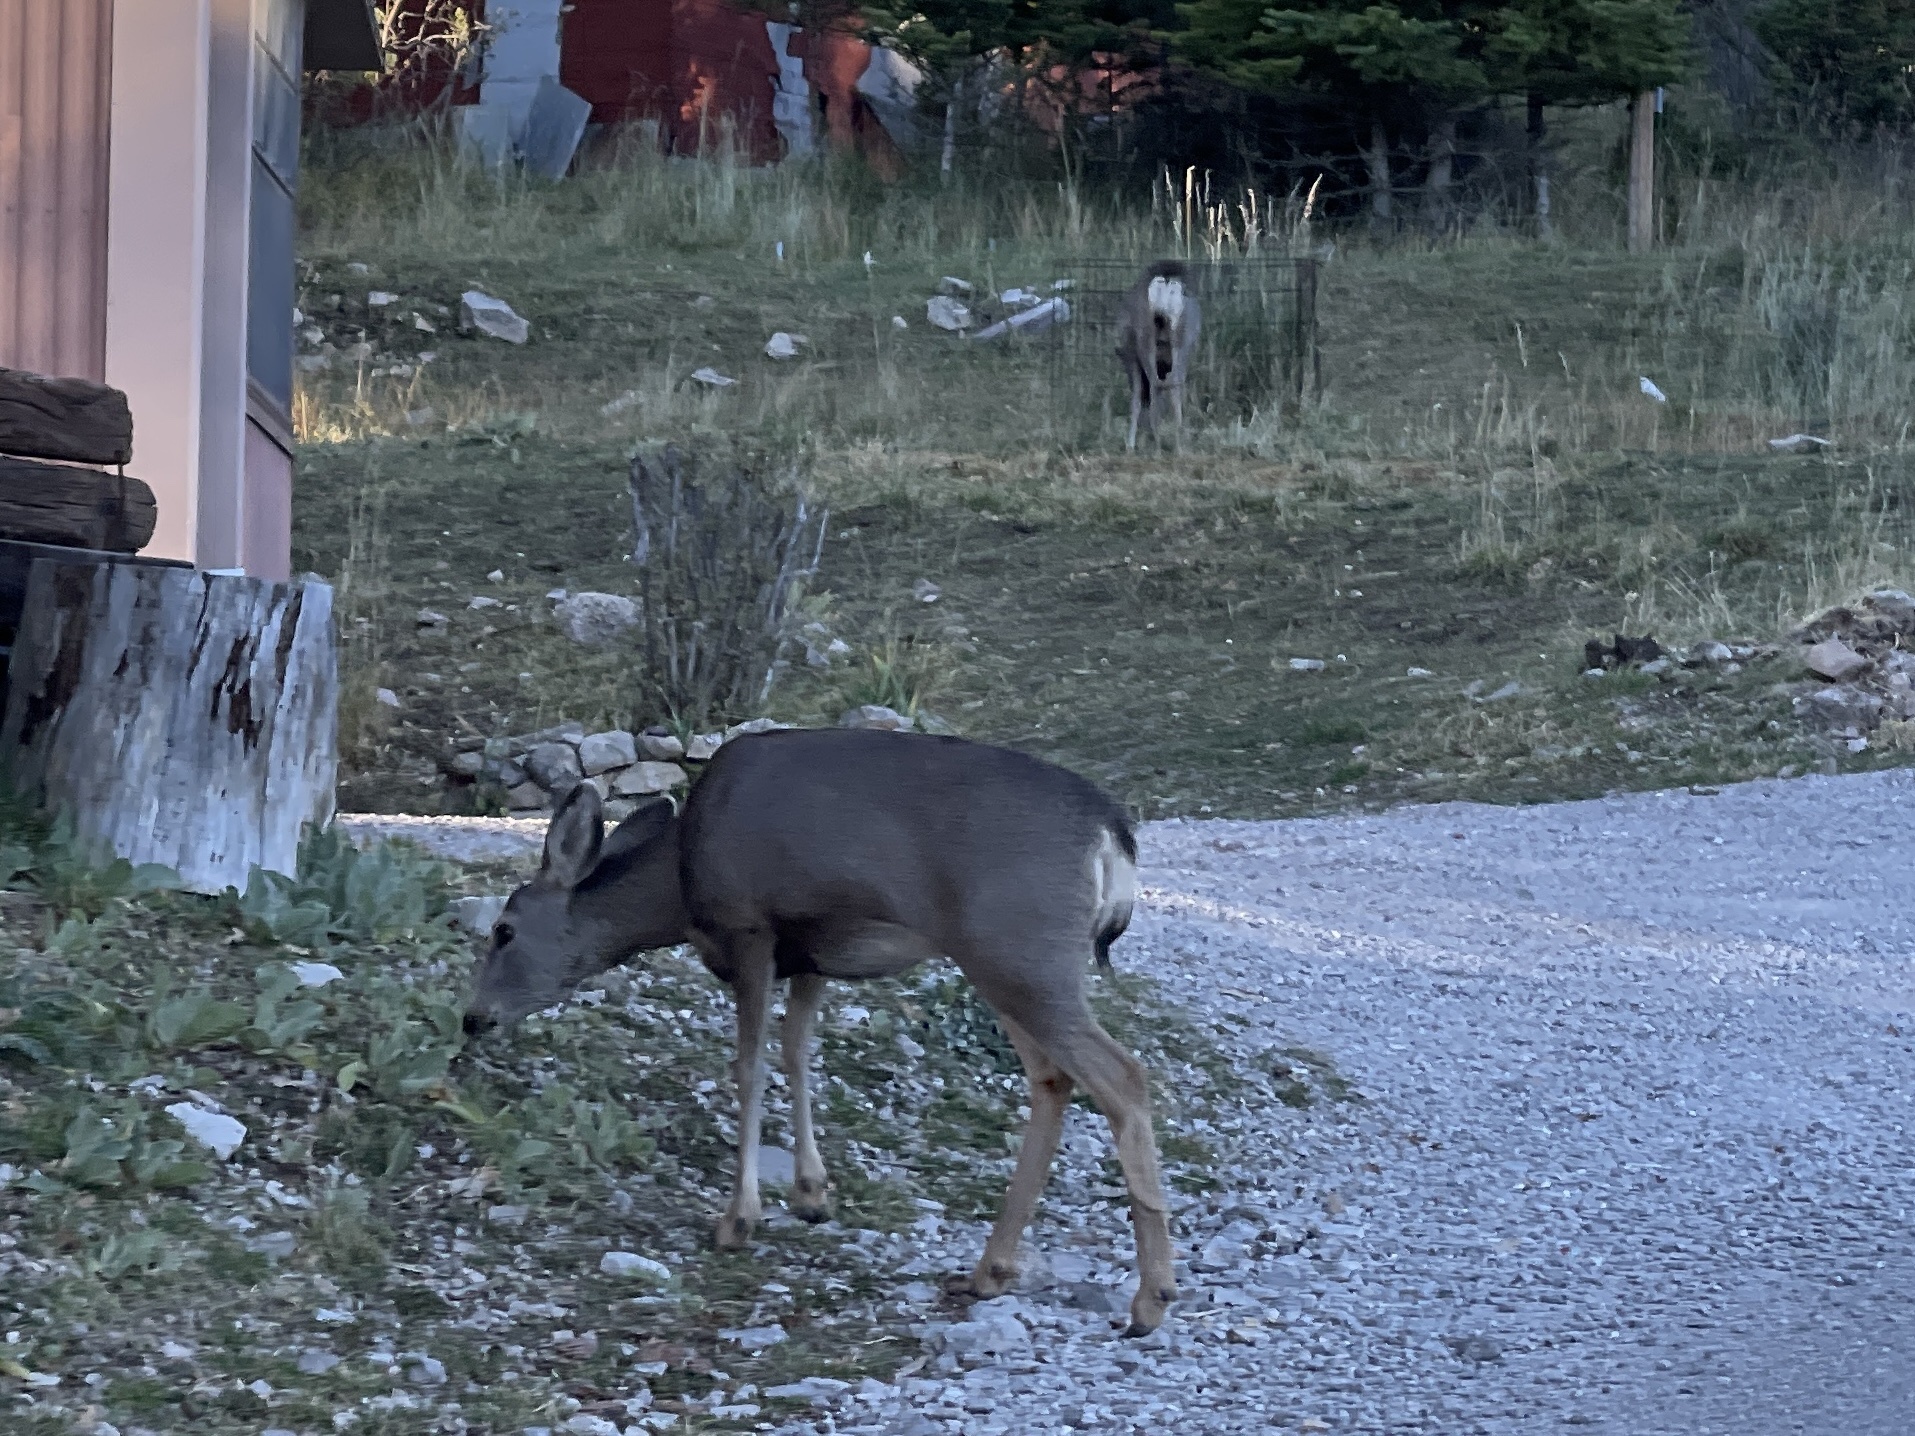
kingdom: Animalia
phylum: Chordata
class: Mammalia
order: Artiodactyla
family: Cervidae
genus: Odocoileus
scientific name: Odocoileus hemionus
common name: Mule deer
